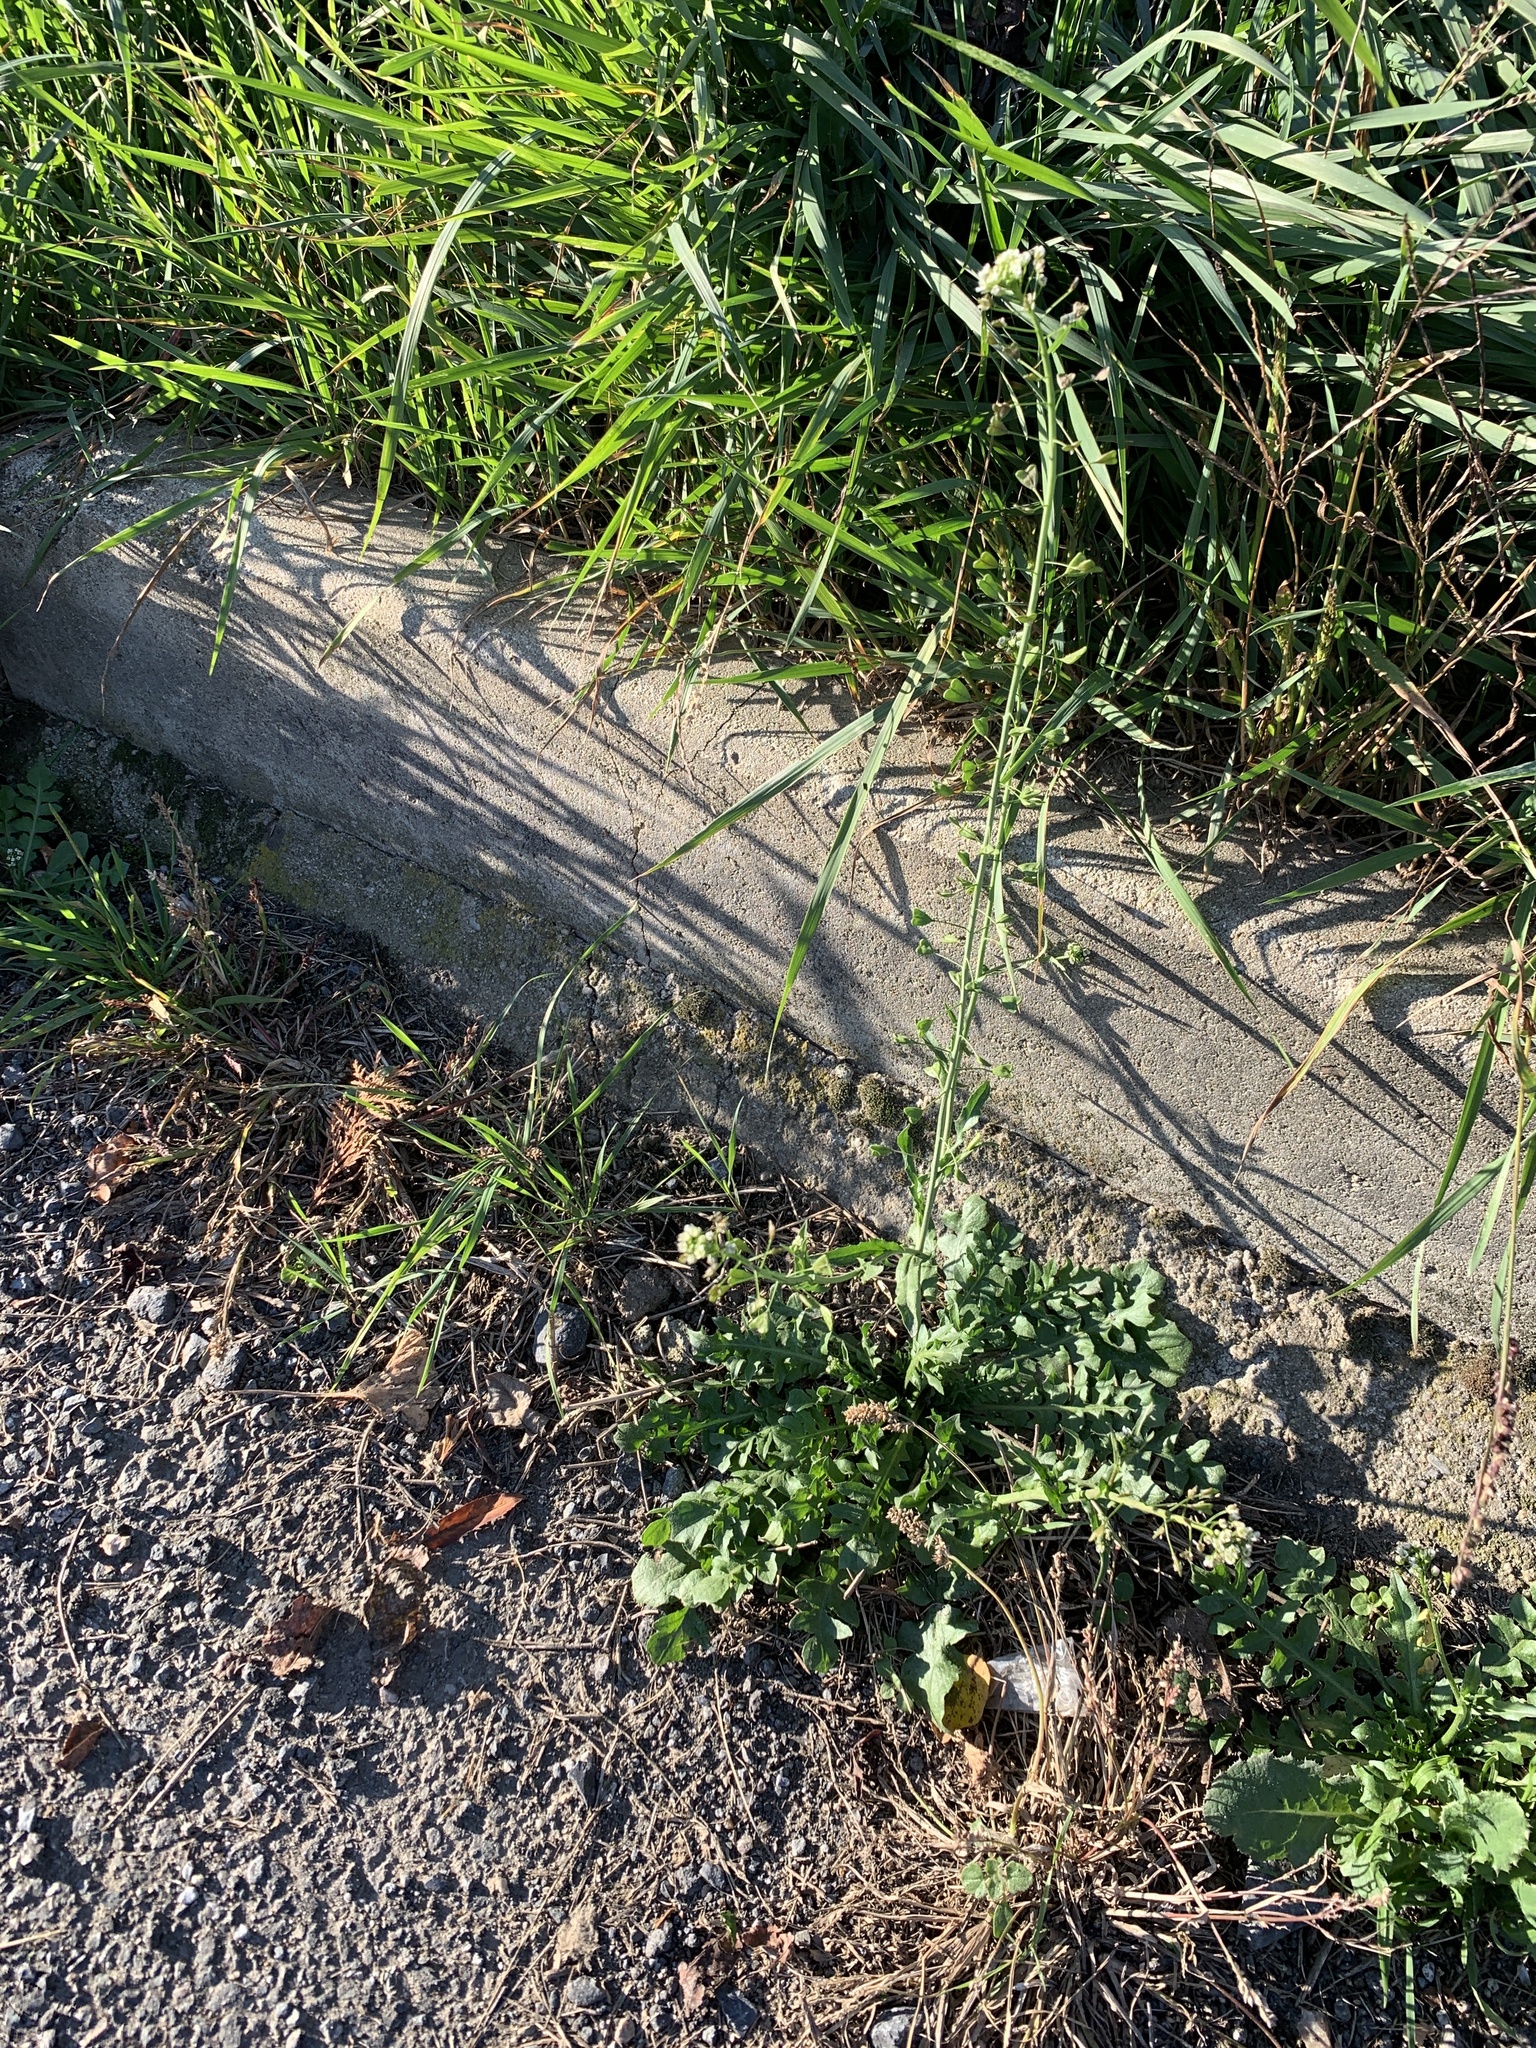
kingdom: Plantae
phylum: Tracheophyta
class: Magnoliopsida
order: Brassicales
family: Brassicaceae
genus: Capsella
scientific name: Capsella bursa-pastoris
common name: Shepherd's purse
